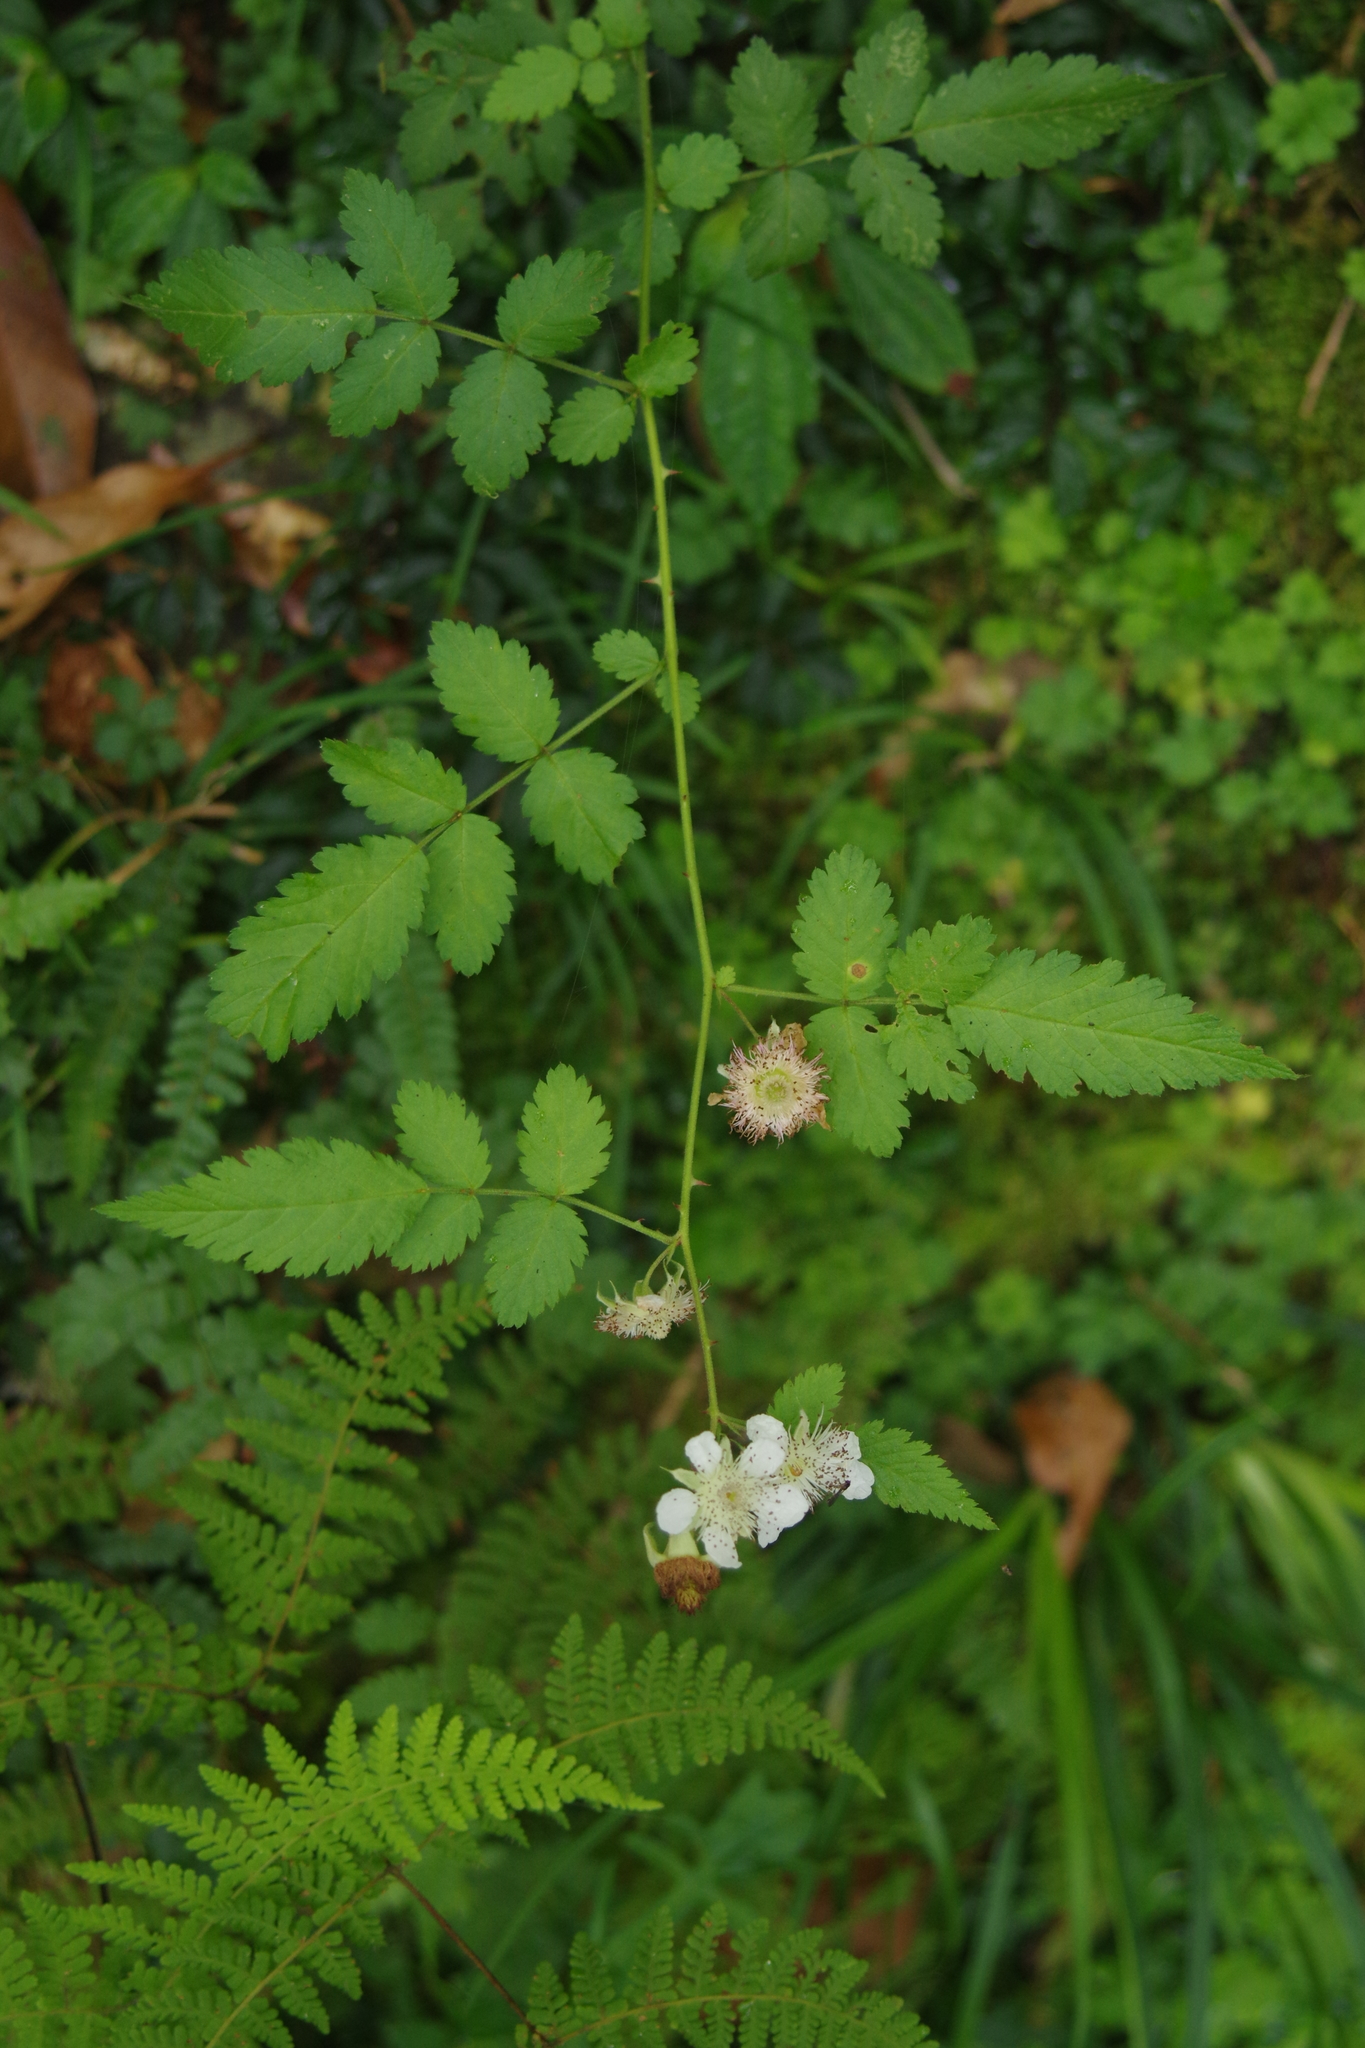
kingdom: Plantae
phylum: Tracheophyta
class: Magnoliopsida
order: Rosales
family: Rosaceae
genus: Rubus
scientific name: Rubus croceacanthus
